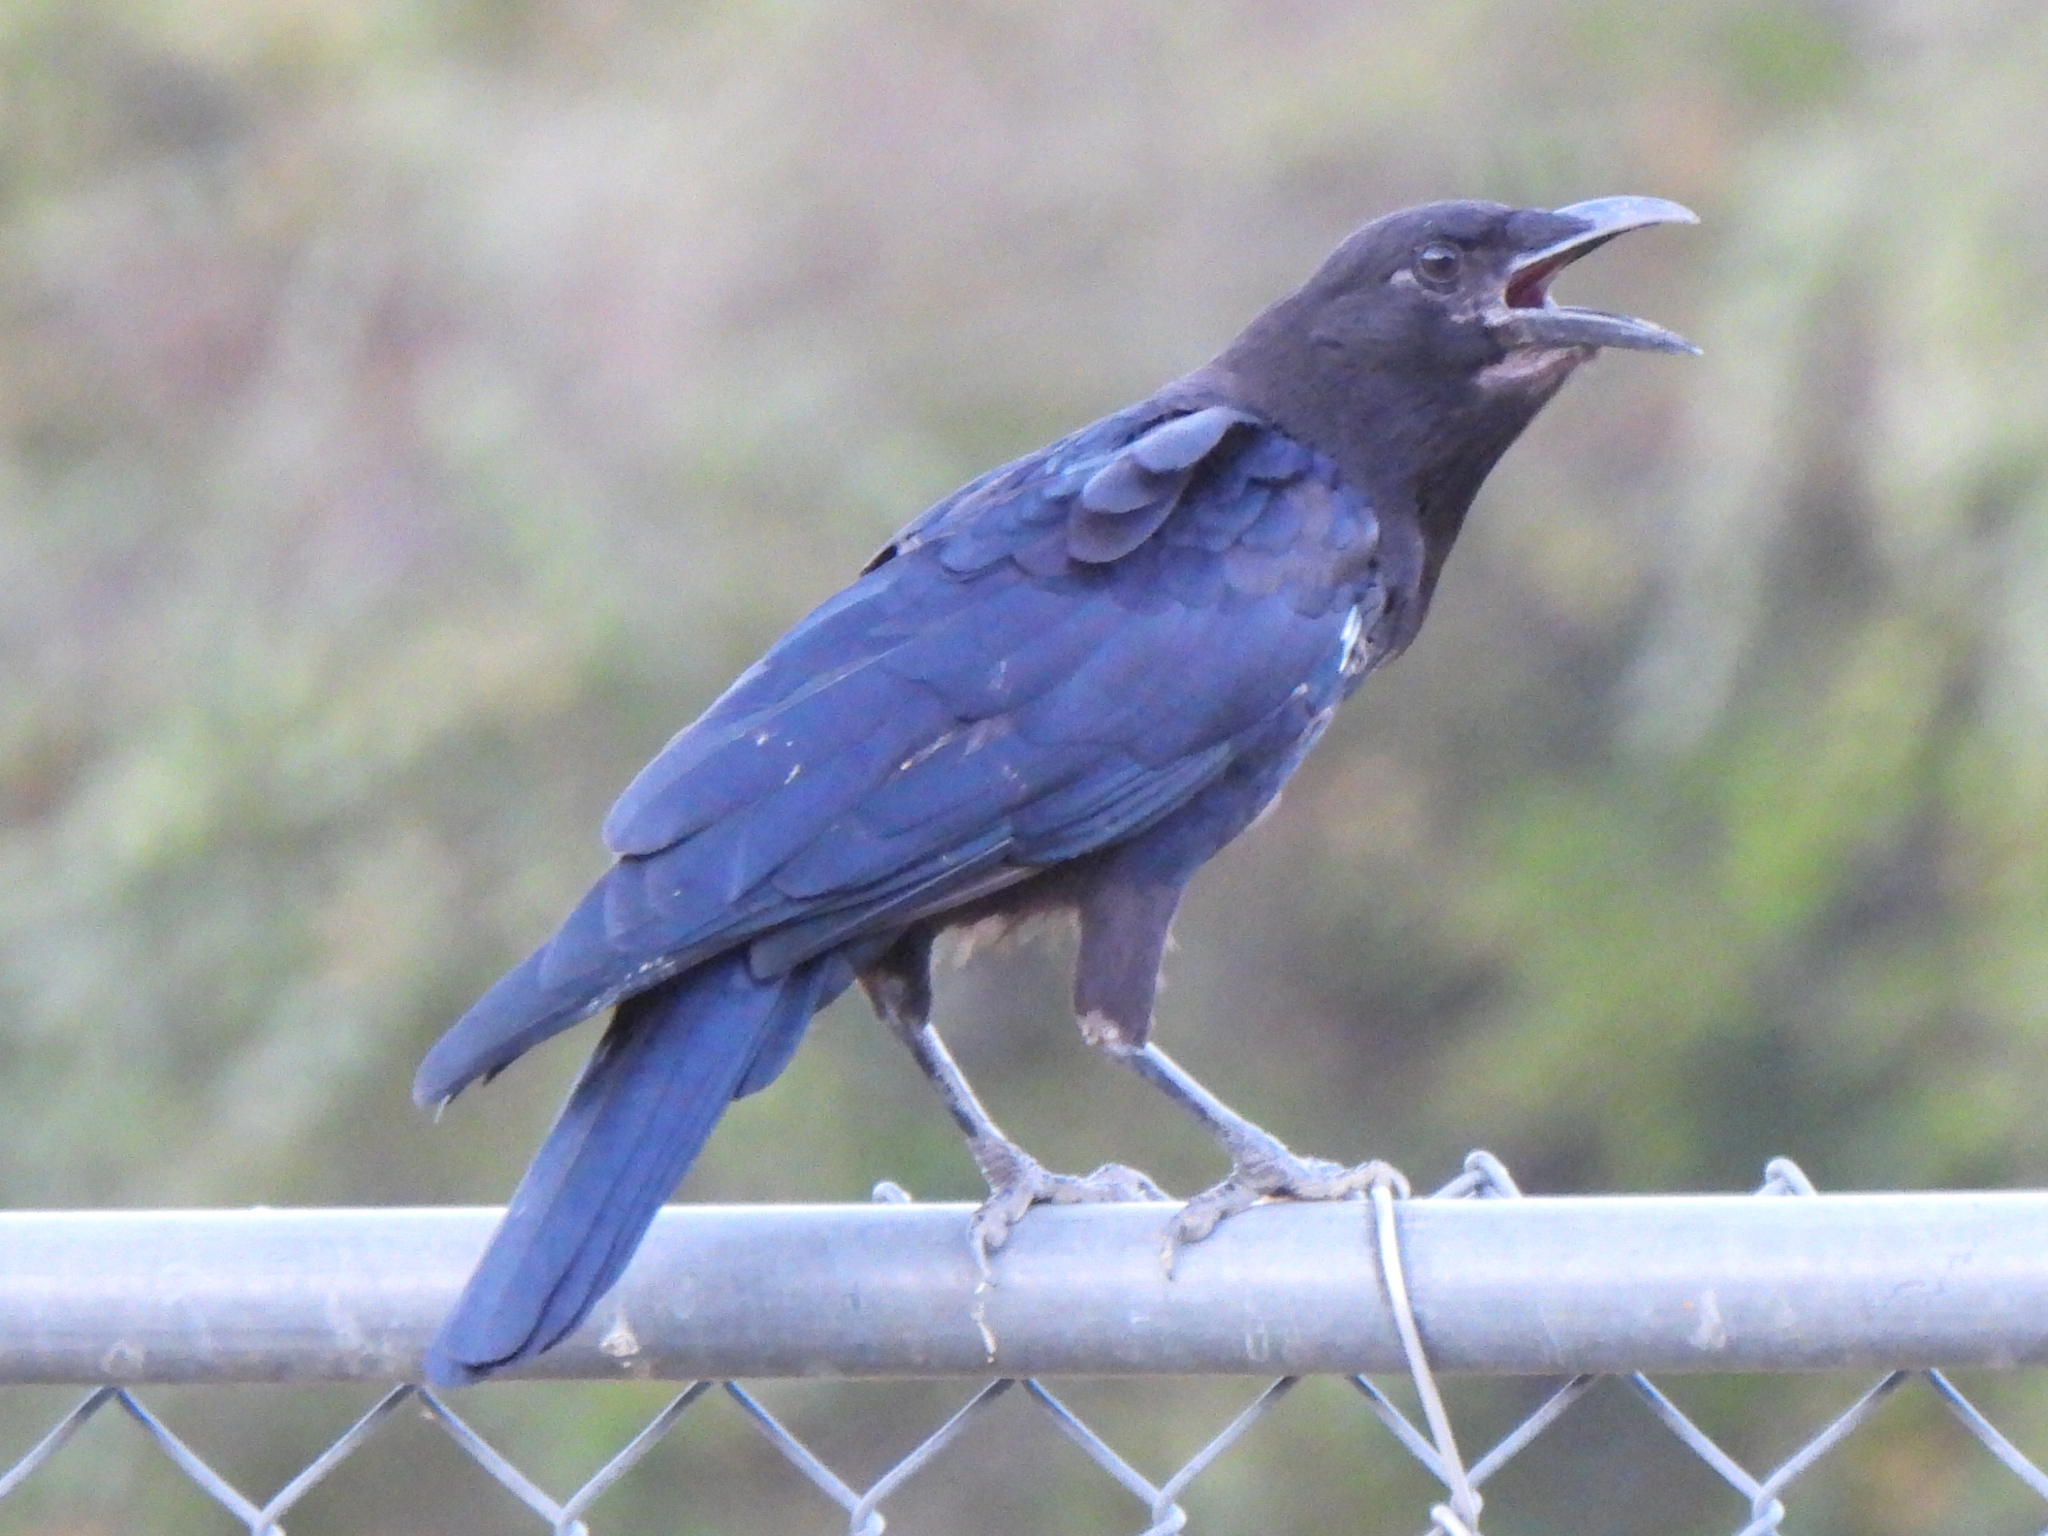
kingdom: Animalia
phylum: Chordata
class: Aves
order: Passeriformes
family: Corvidae
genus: Corvus
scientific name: Corvus brachyrhynchos
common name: American crow
